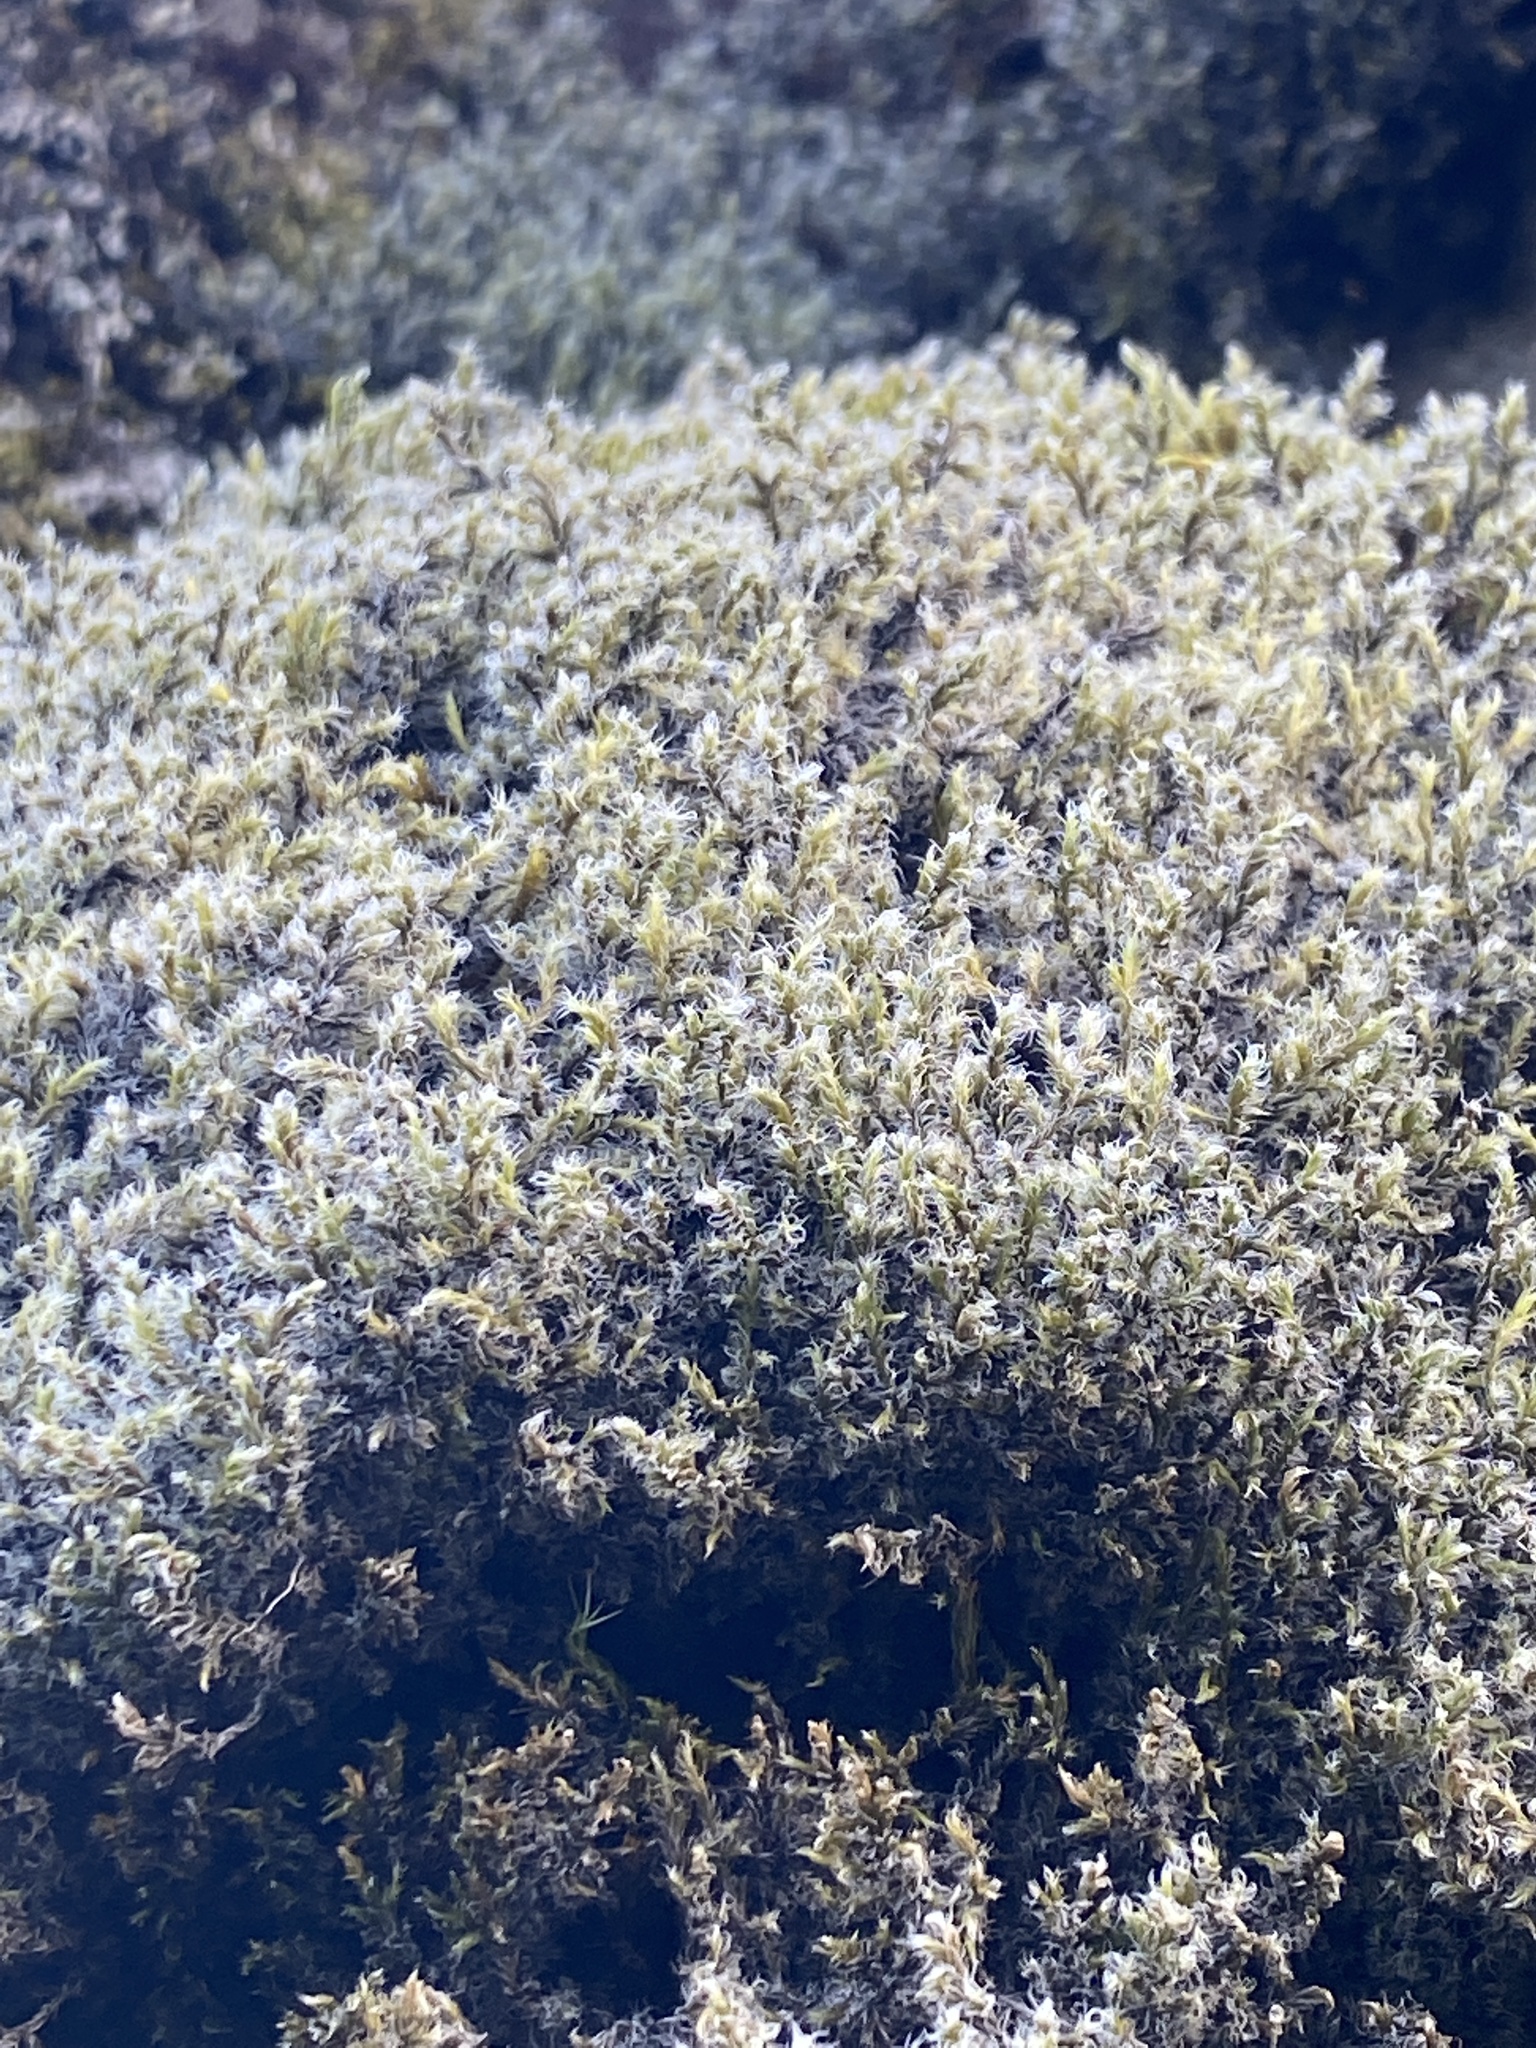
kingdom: Plantae
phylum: Bryophyta
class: Bryopsida
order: Grimmiales
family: Grimmiaceae
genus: Racomitrium
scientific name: Racomitrium lanuginosum
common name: Hoary rock moss
